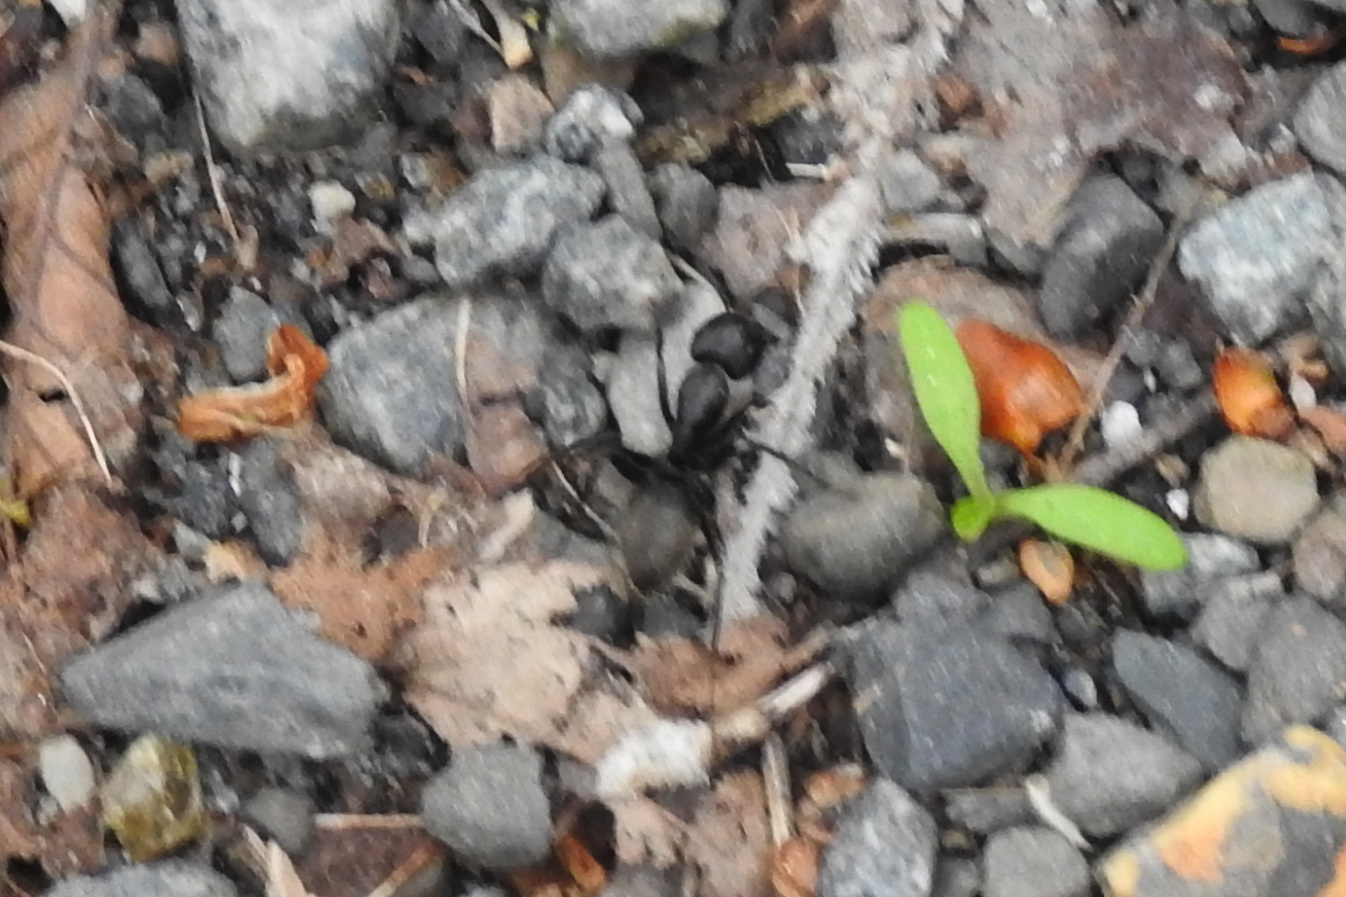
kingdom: Animalia
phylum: Arthropoda
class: Insecta
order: Hymenoptera
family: Formicidae
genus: Camponotus
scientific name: Camponotus pennsylvanicus
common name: Black carpenter ant
